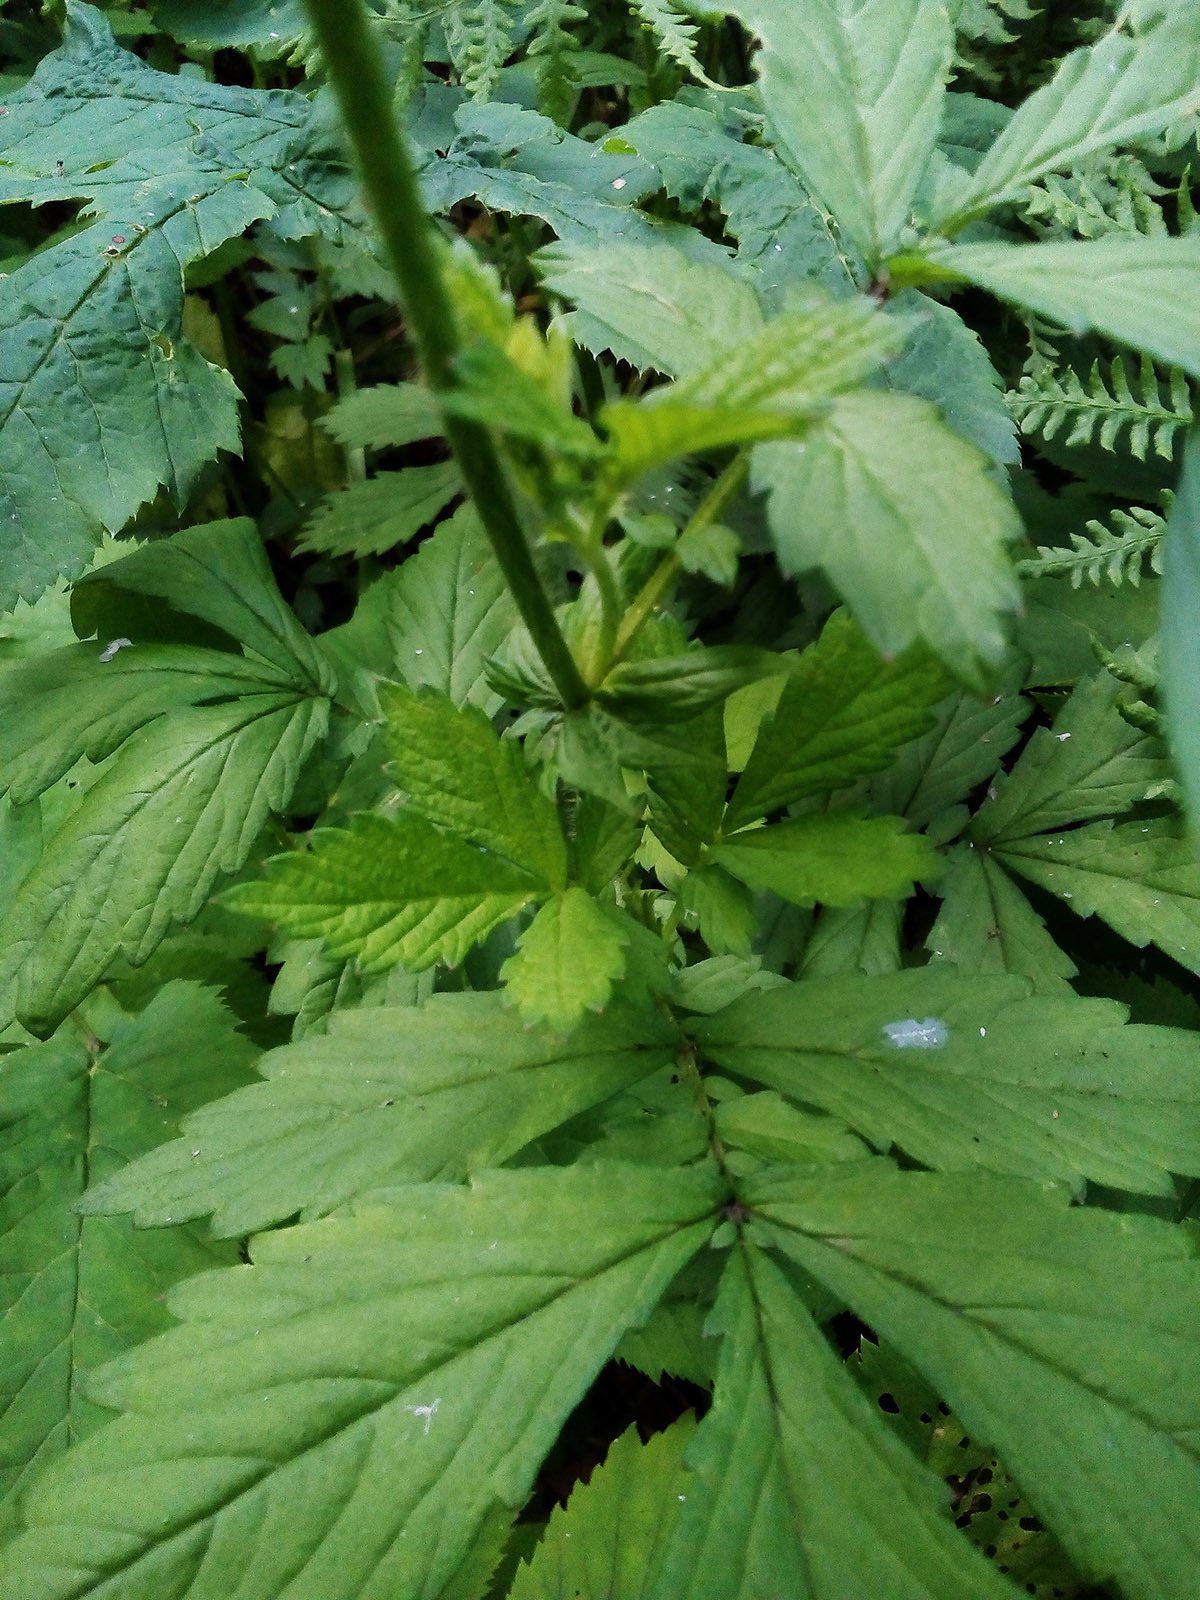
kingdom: Plantae
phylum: Tracheophyta
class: Magnoliopsida
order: Rosales
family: Rosaceae
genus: Agrimonia
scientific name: Agrimonia pilosa
